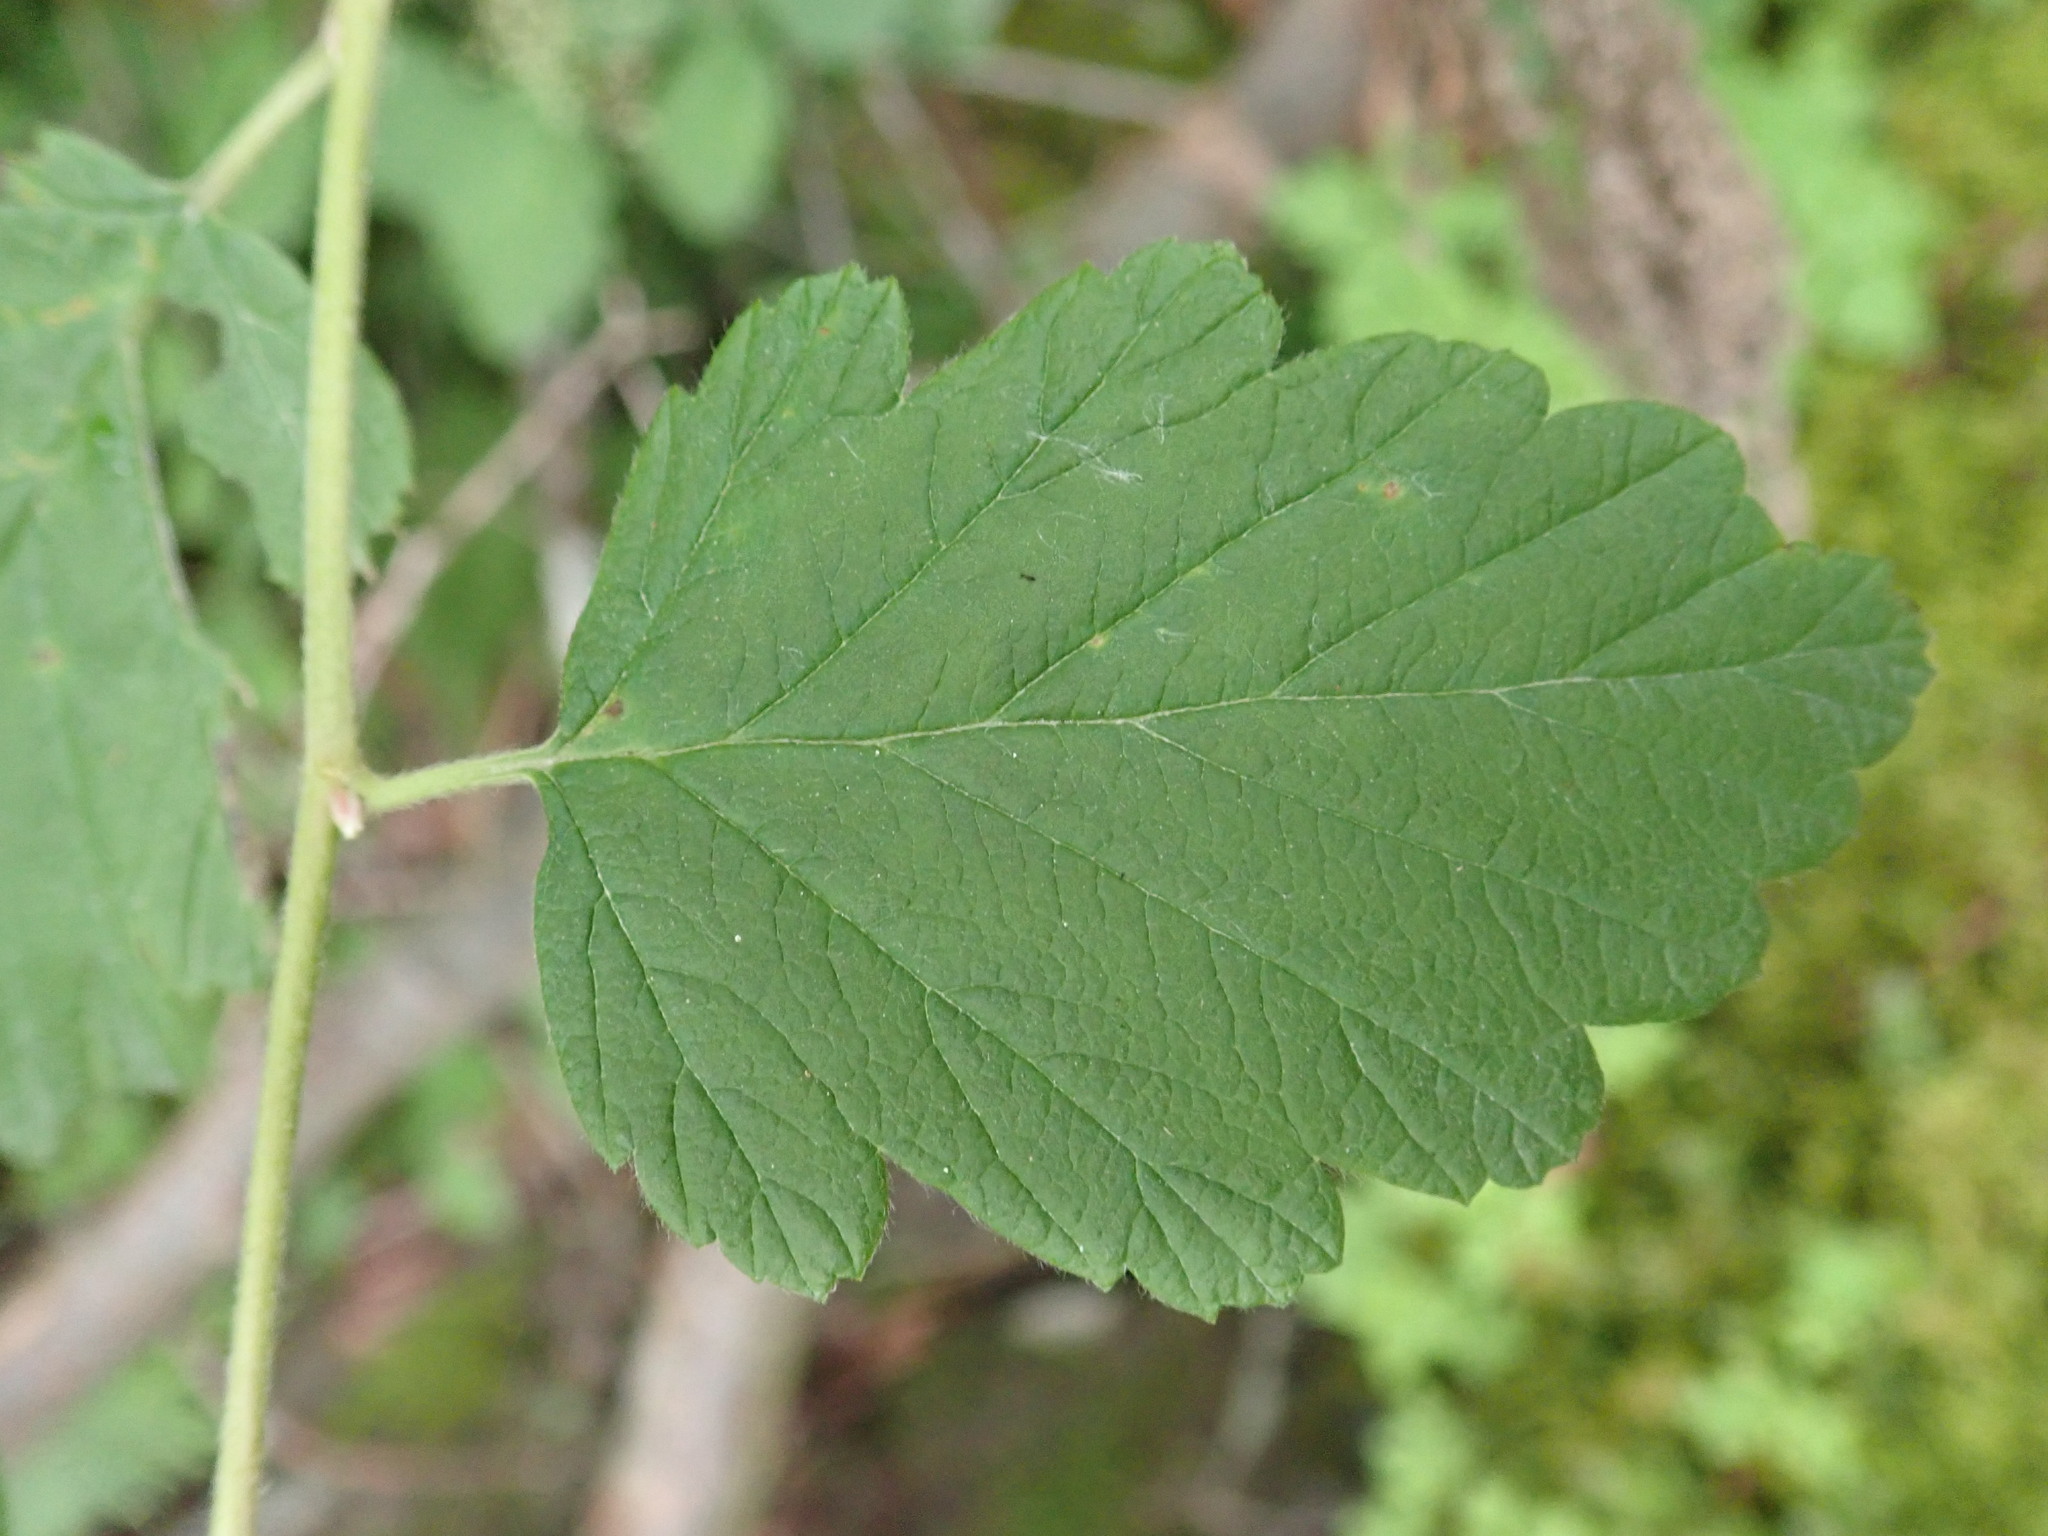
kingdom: Plantae
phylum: Tracheophyta
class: Magnoliopsida
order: Rosales
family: Rosaceae
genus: Holodiscus
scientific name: Holodiscus discolor
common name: Oceanspray
